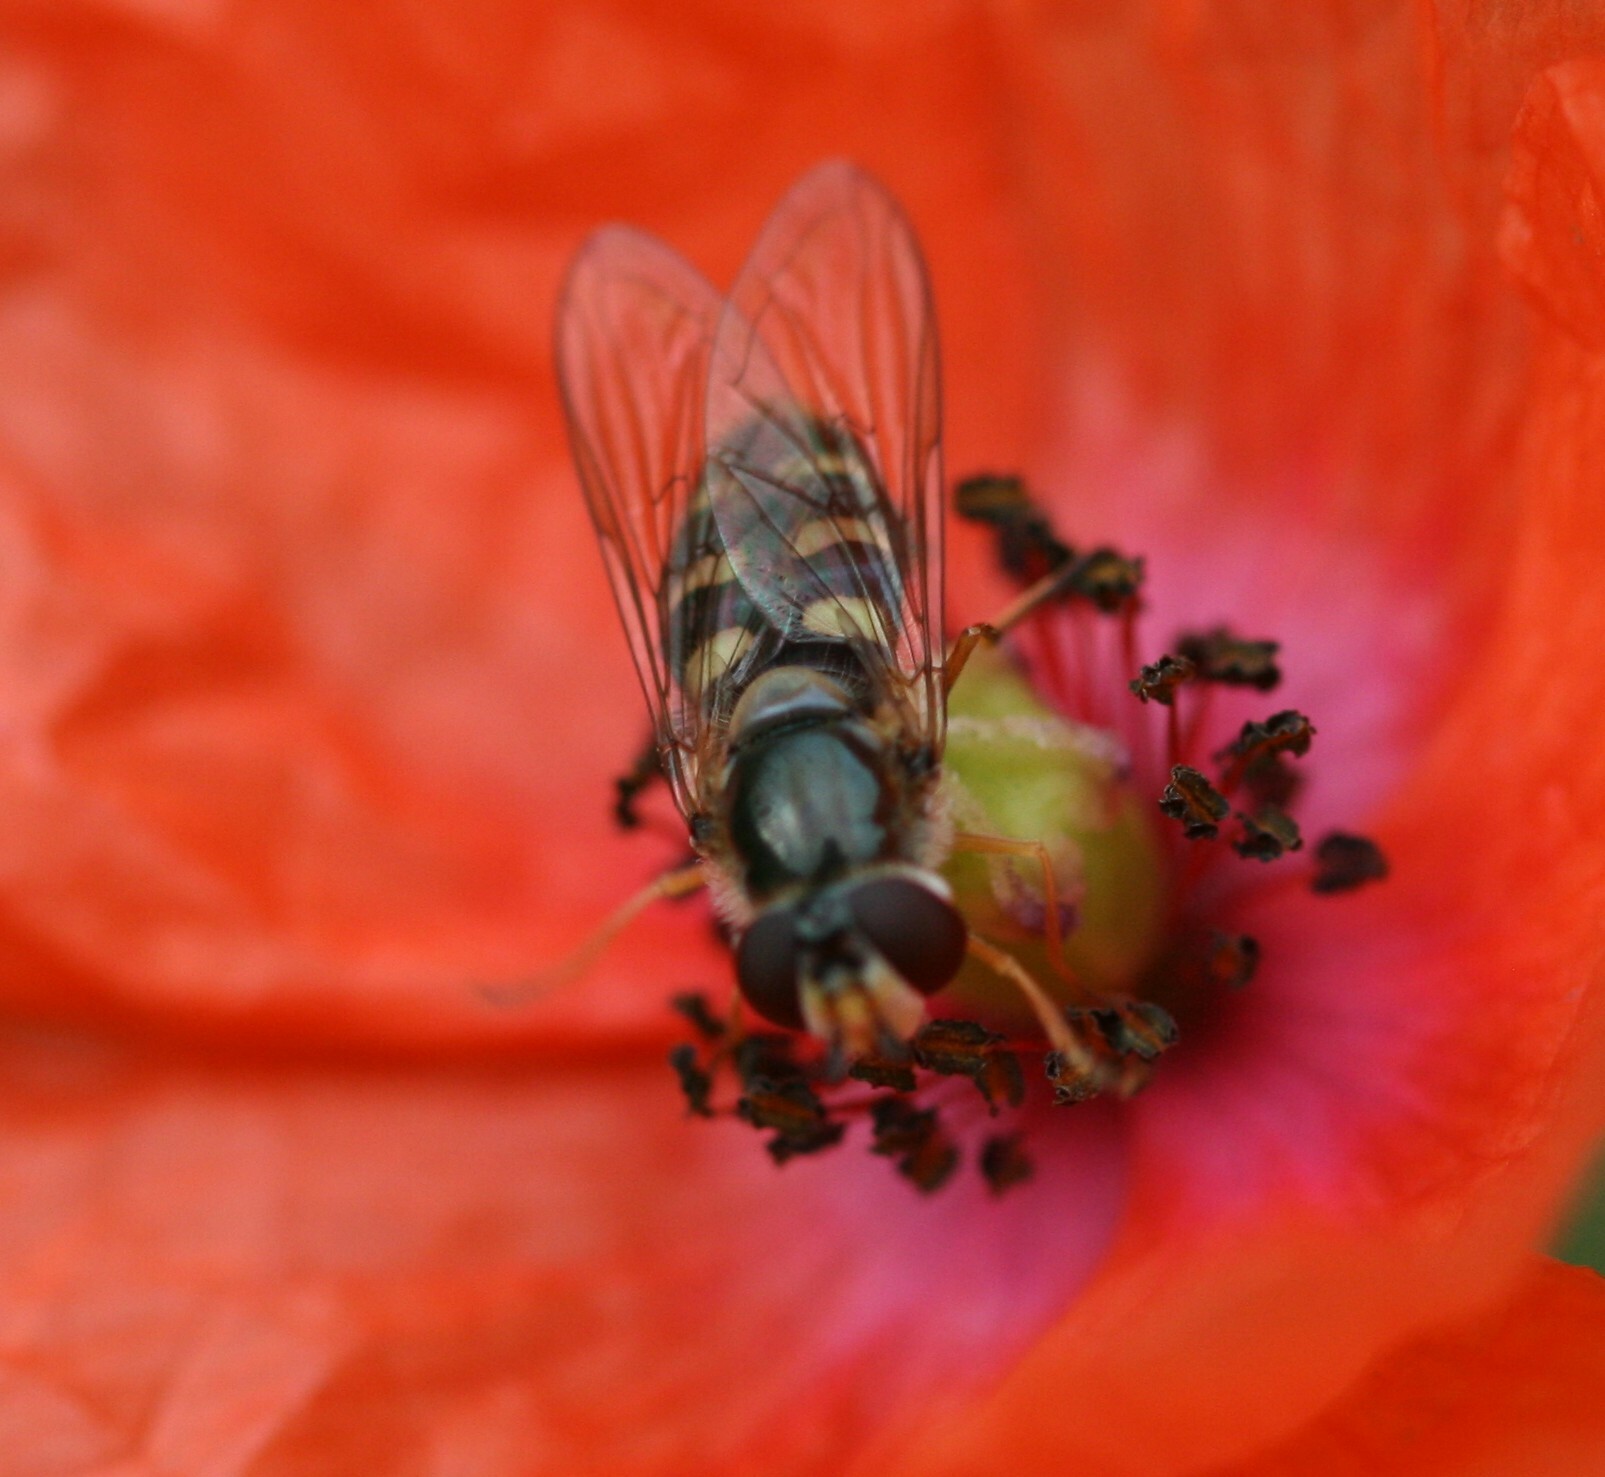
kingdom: Animalia
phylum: Arthropoda
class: Insecta
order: Diptera
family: Syrphidae
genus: Eupeodes
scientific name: Eupeodes
